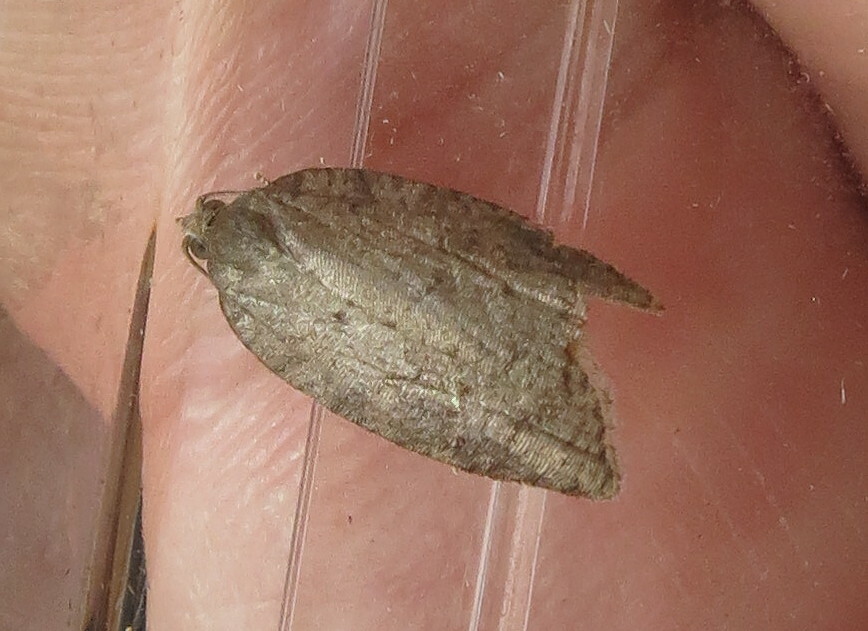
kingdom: Animalia
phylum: Arthropoda
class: Insecta
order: Lepidoptera
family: Tortricidae
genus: Acleris
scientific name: Acleris sparsana
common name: Ashy button
